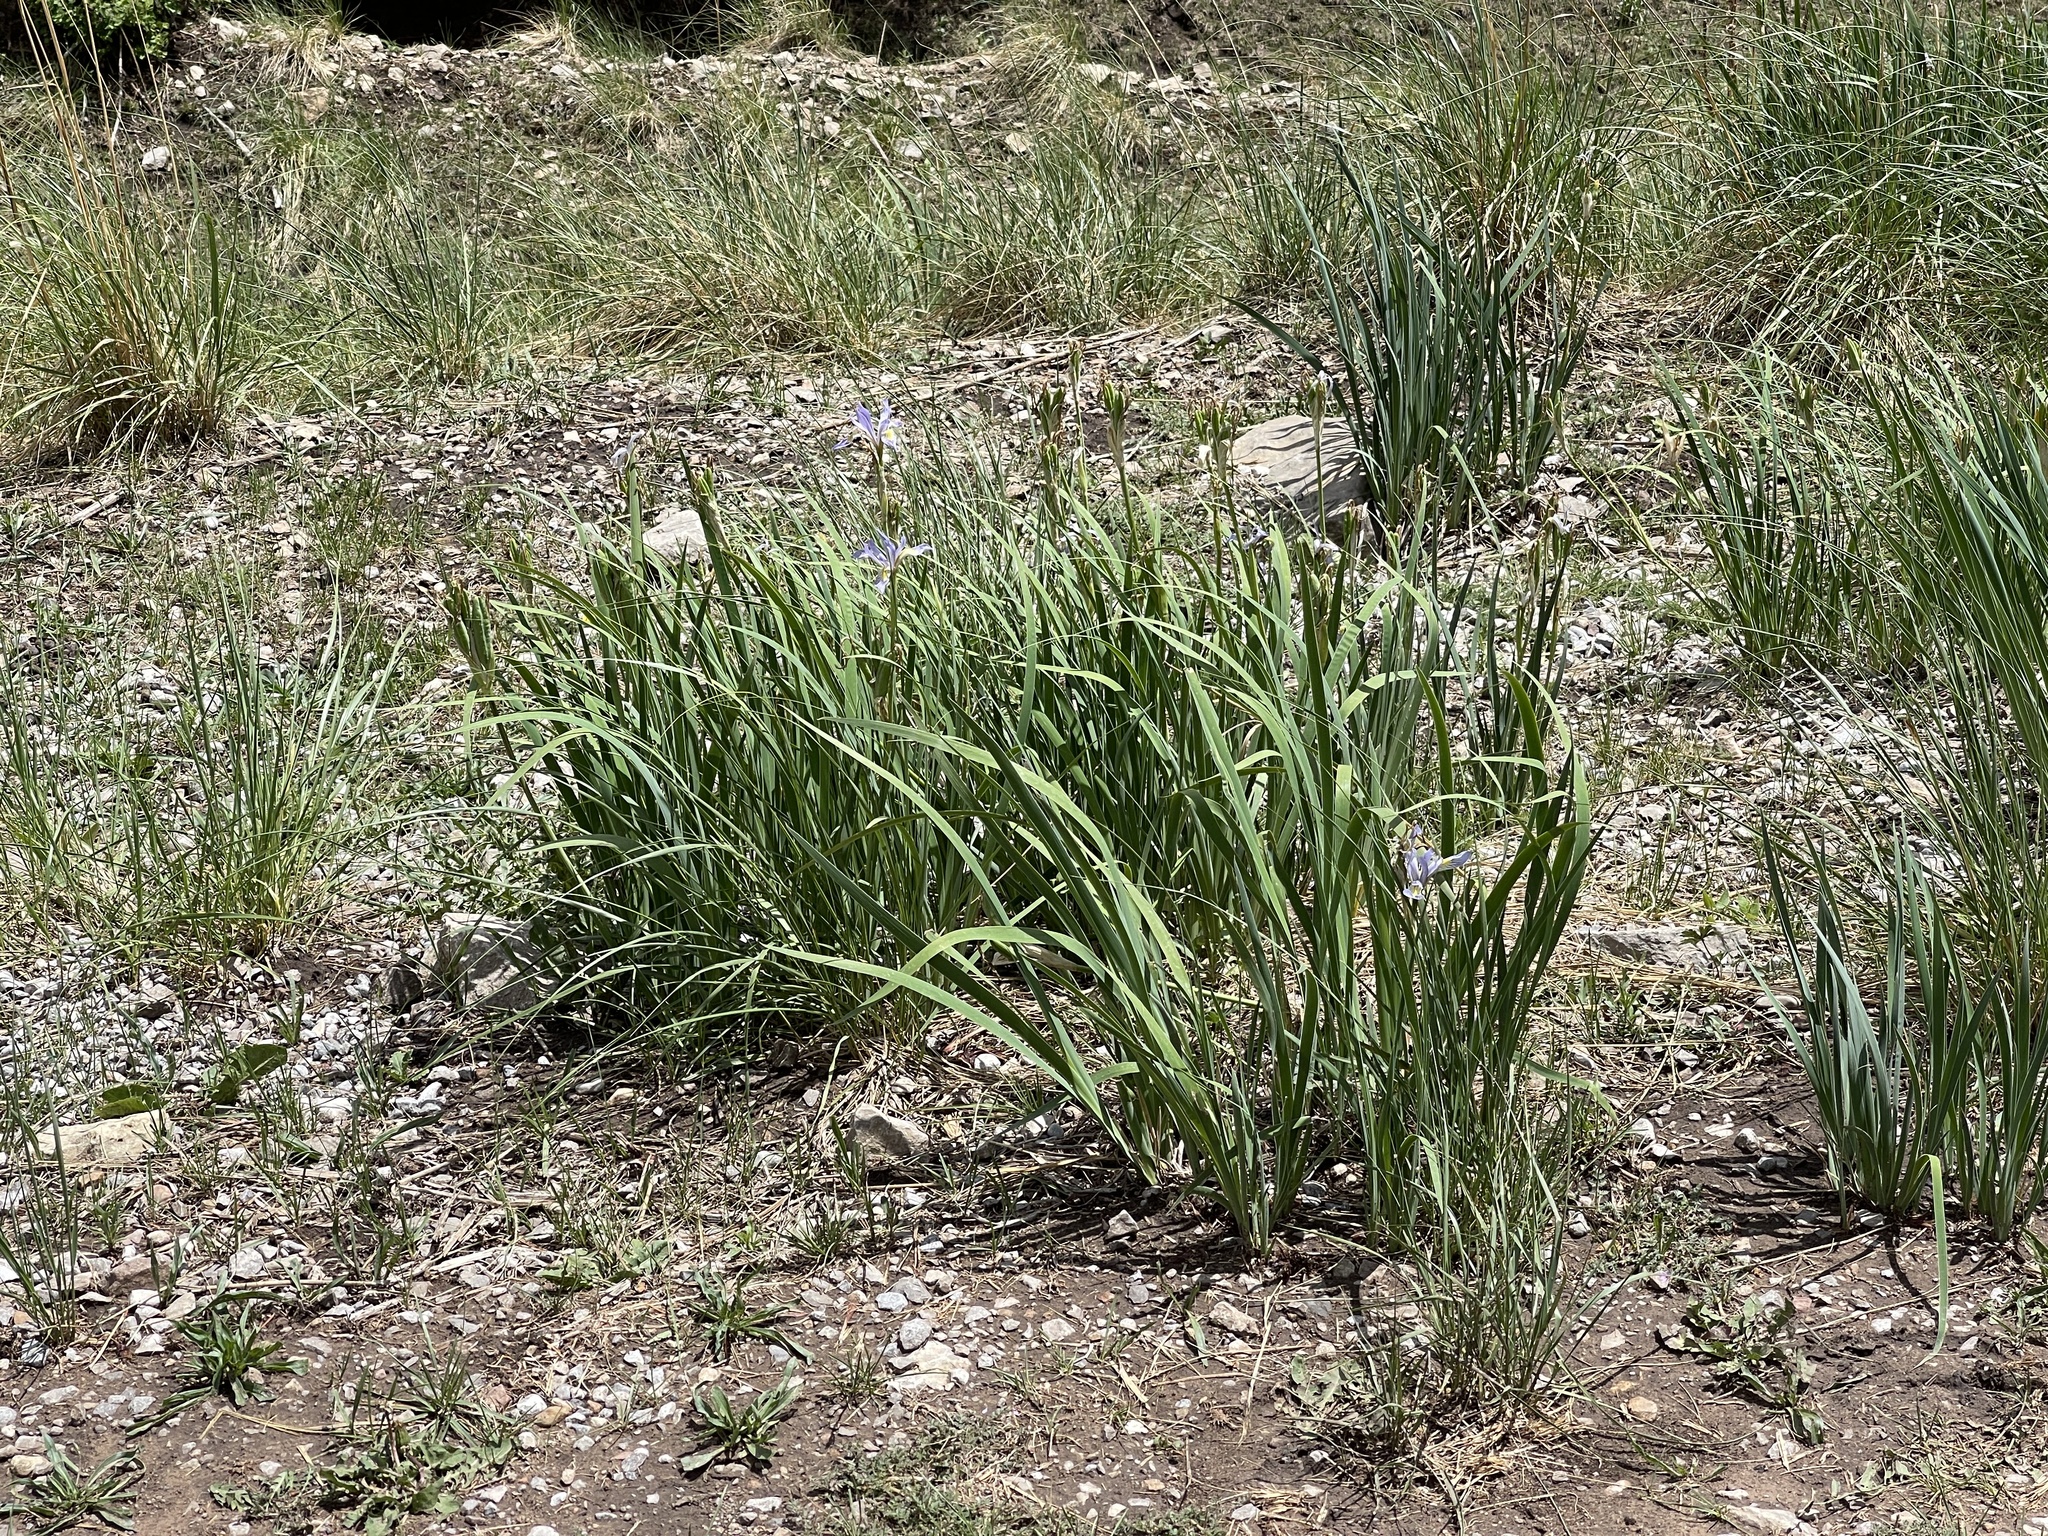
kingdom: Plantae
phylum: Tracheophyta
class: Liliopsida
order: Asparagales
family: Iridaceae
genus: Iris
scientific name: Iris missouriensis
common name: Rocky mountain iris
